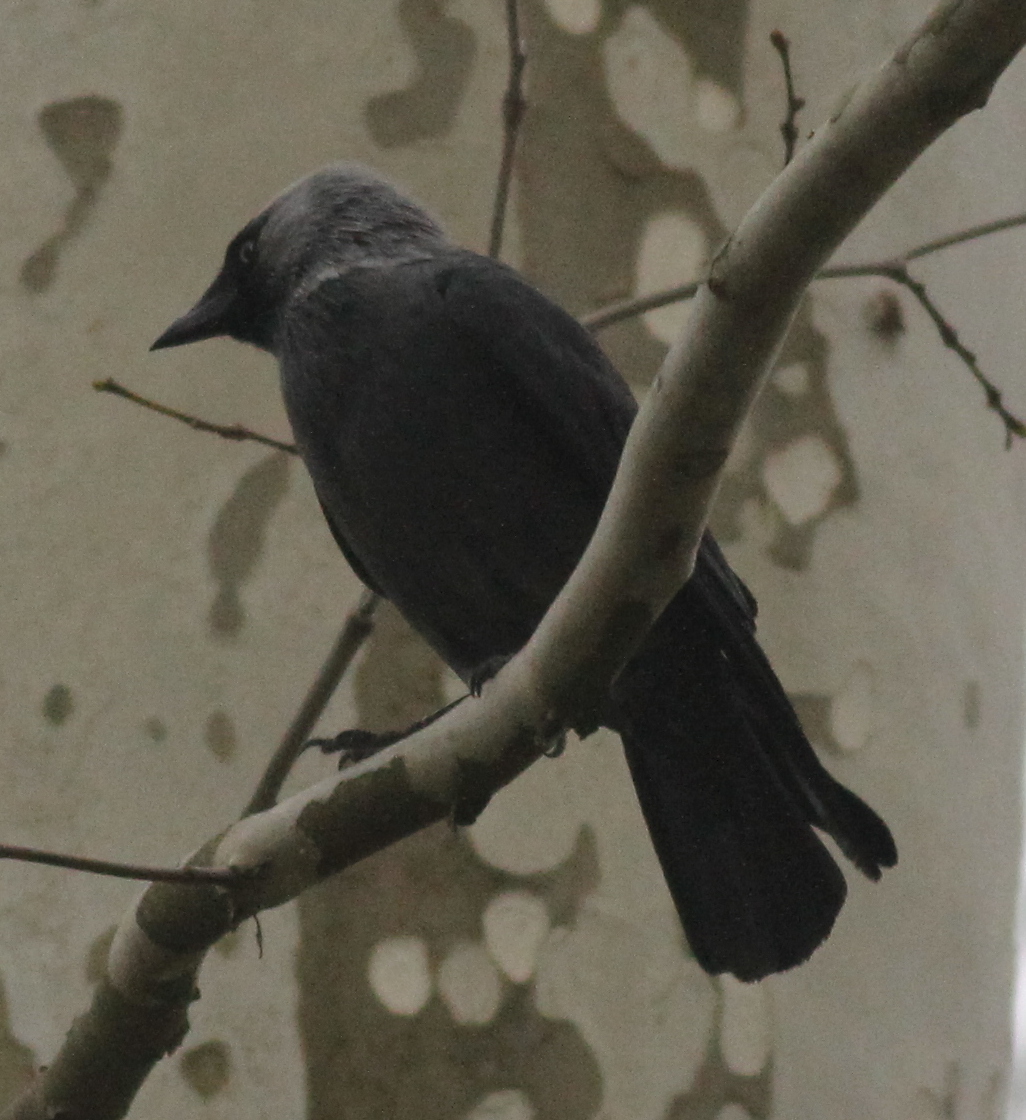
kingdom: Animalia
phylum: Chordata
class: Aves
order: Passeriformes
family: Corvidae
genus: Coloeus
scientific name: Coloeus monedula
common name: Western jackdaw
